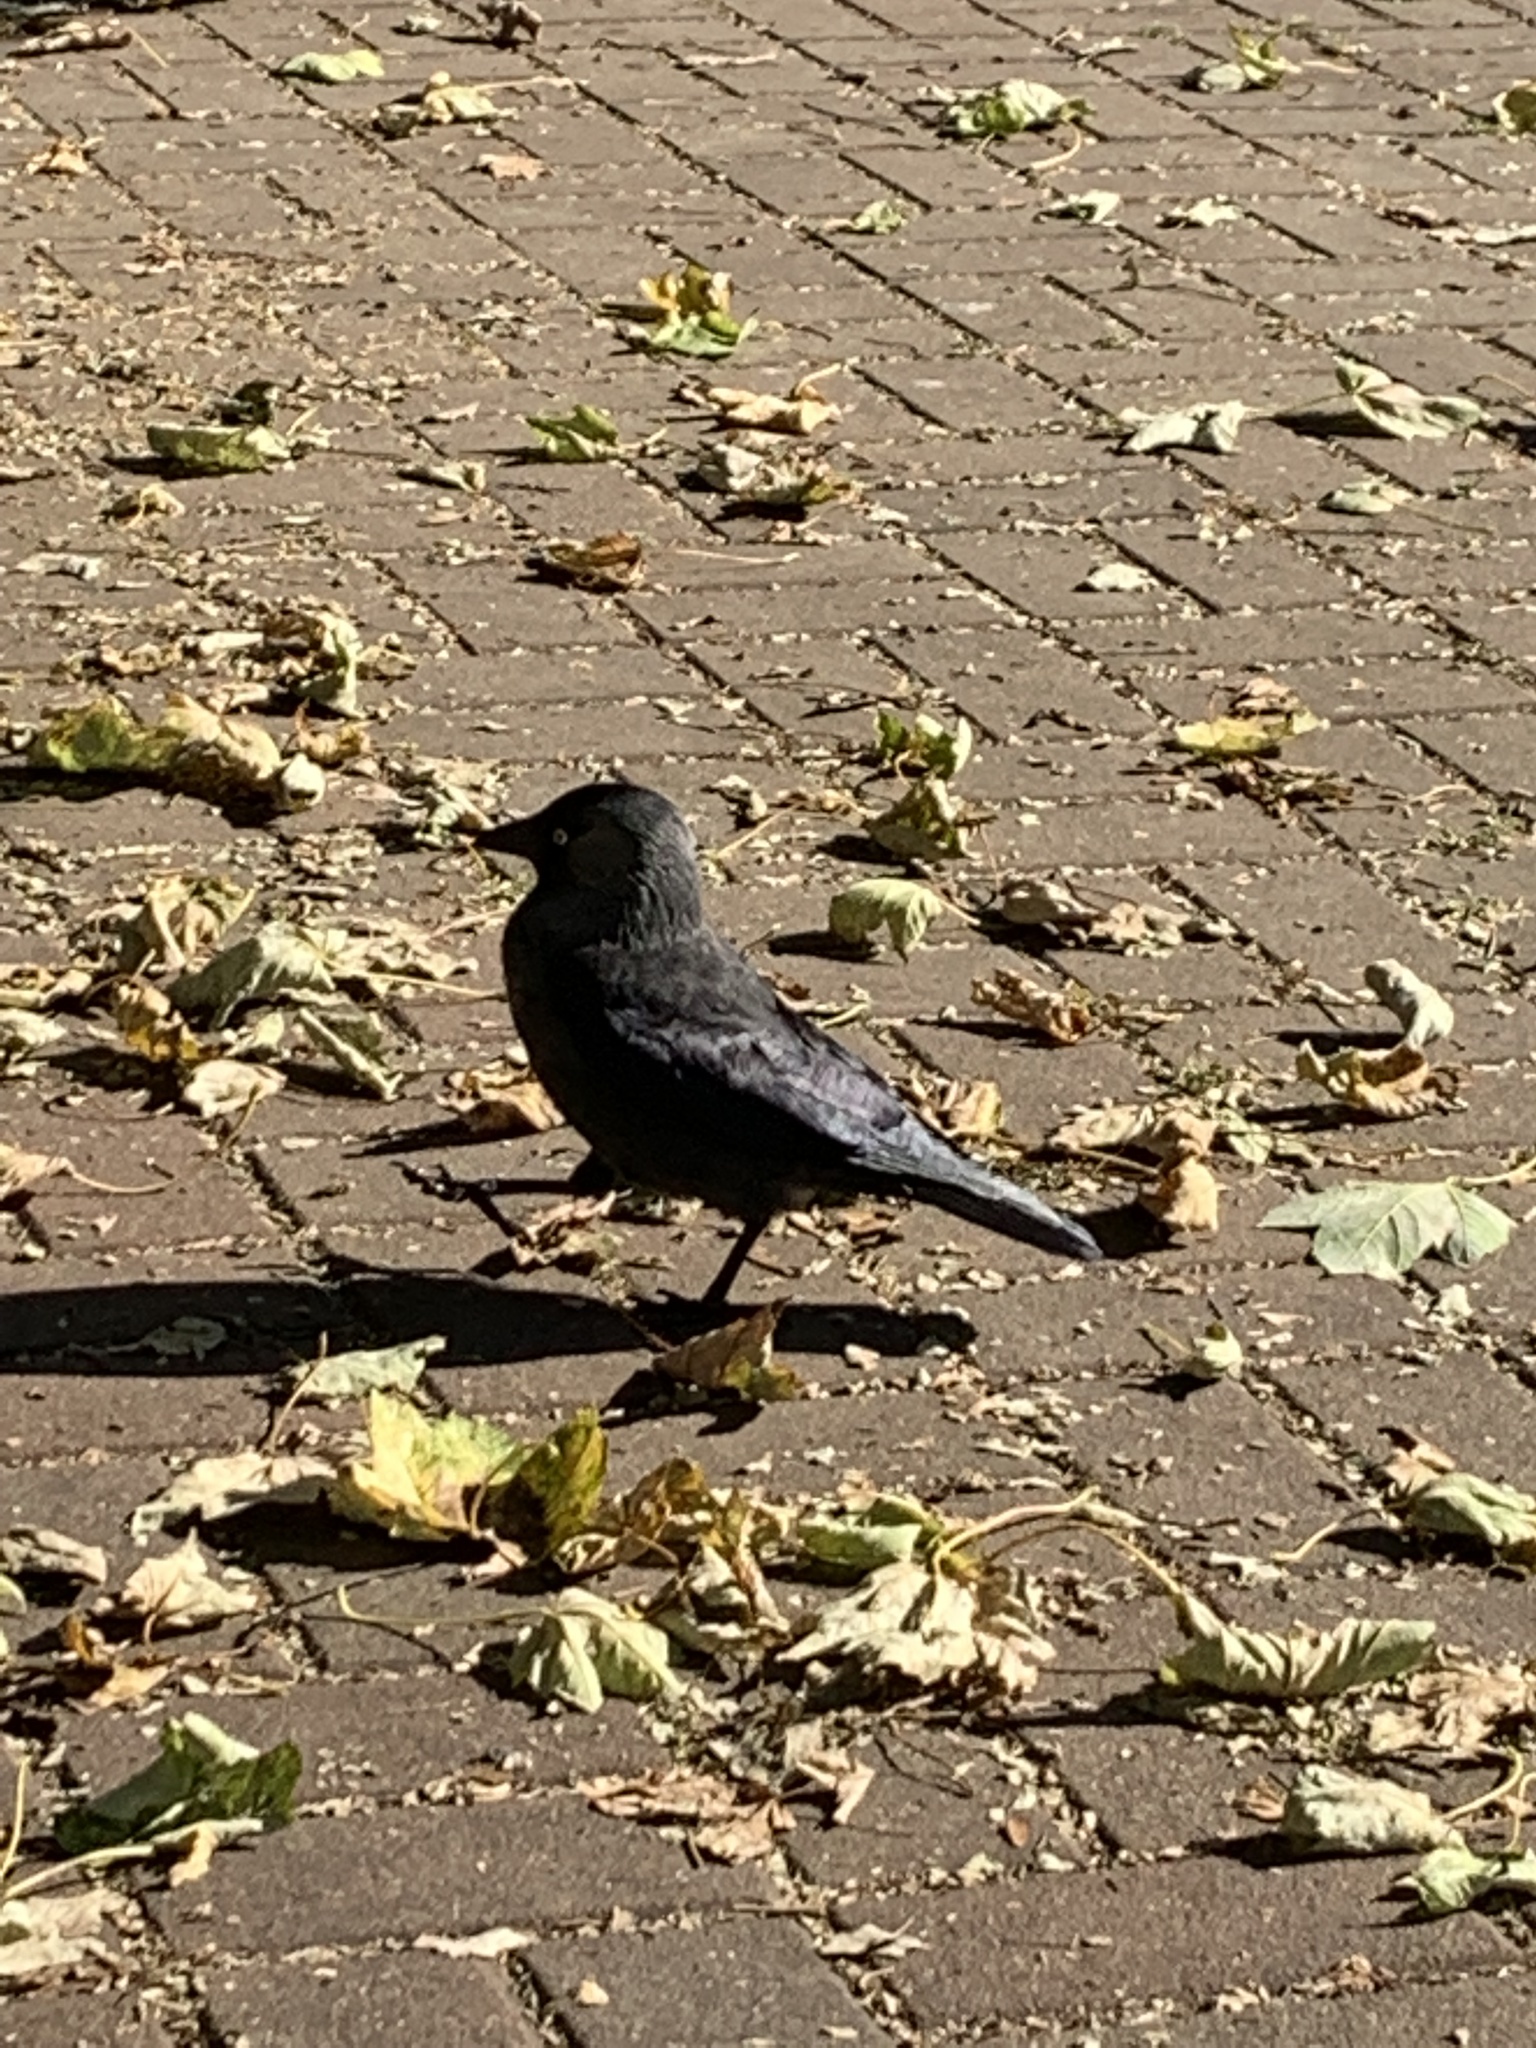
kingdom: Animalia
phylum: Chordata
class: Aves
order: Passeriformes
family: Corvidae
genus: Coloeus
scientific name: Coloeus monedula
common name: Western jackdaw
